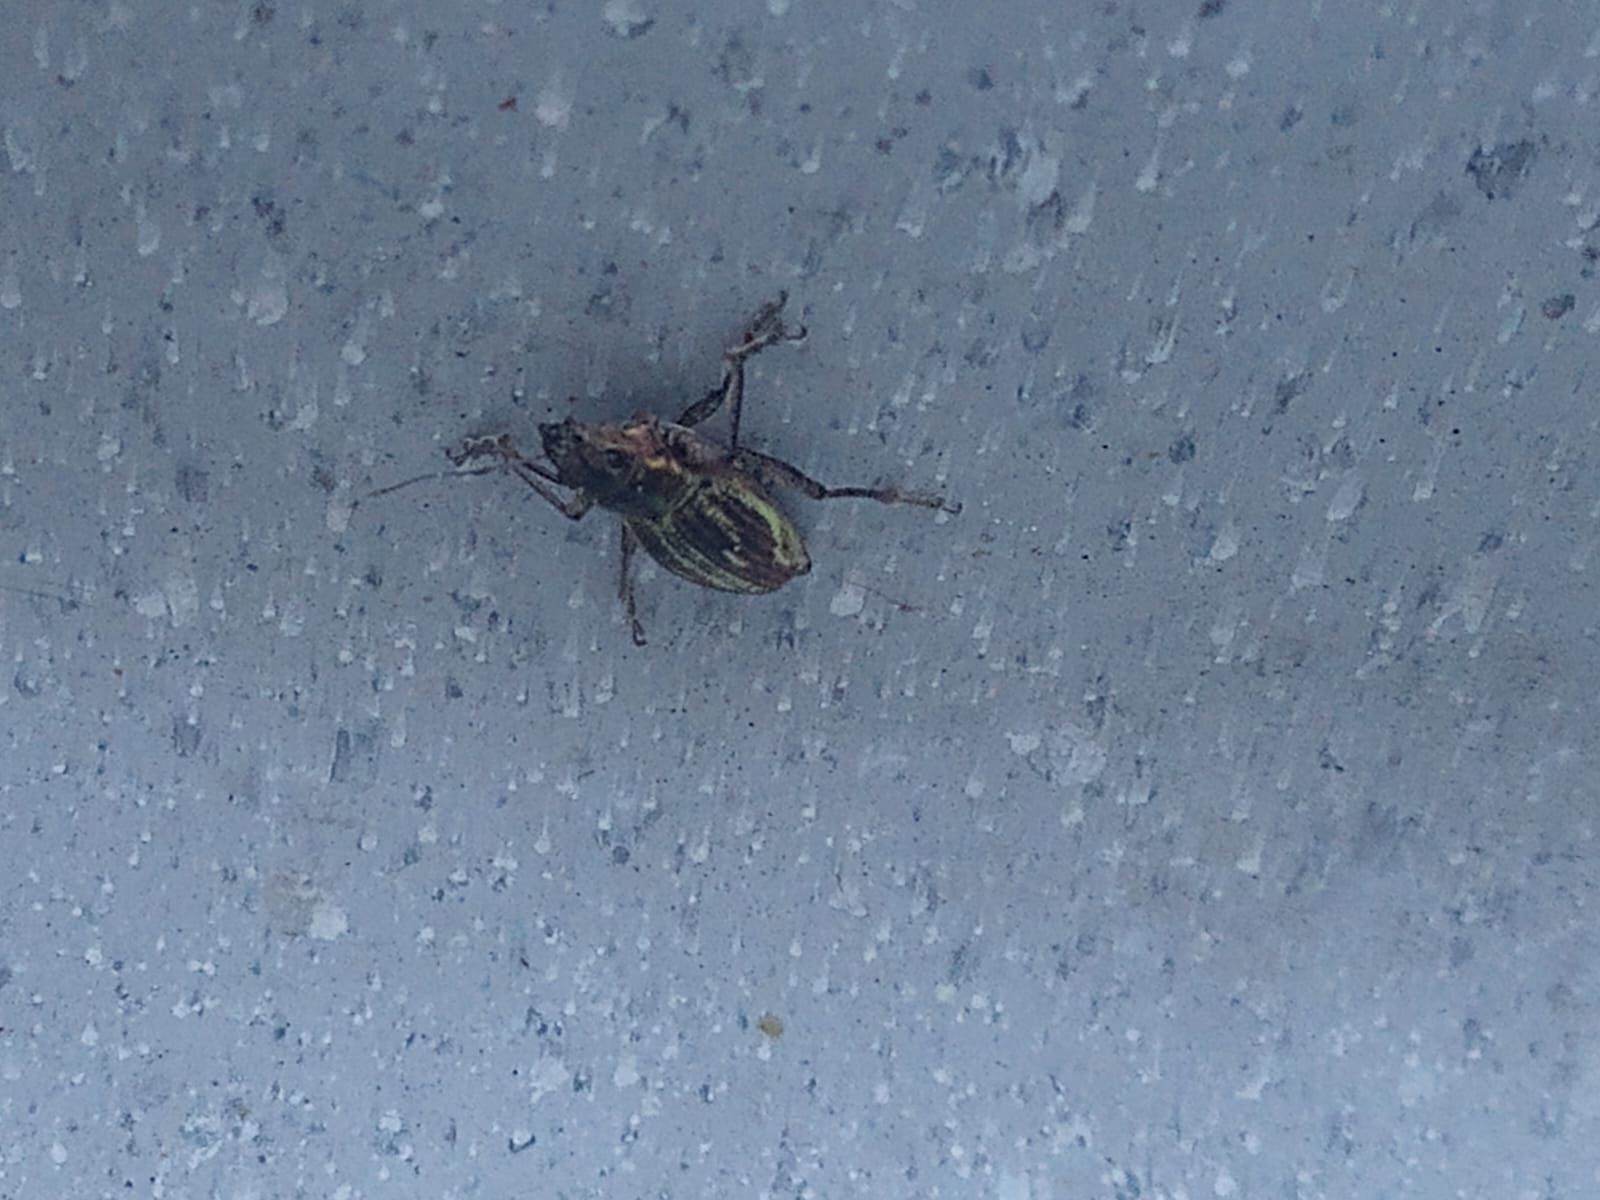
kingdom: Animalia
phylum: Arthropoda
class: Insecta
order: Coleoptera
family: Curculionidae
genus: Naupactus
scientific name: Naupactus xanthographus
